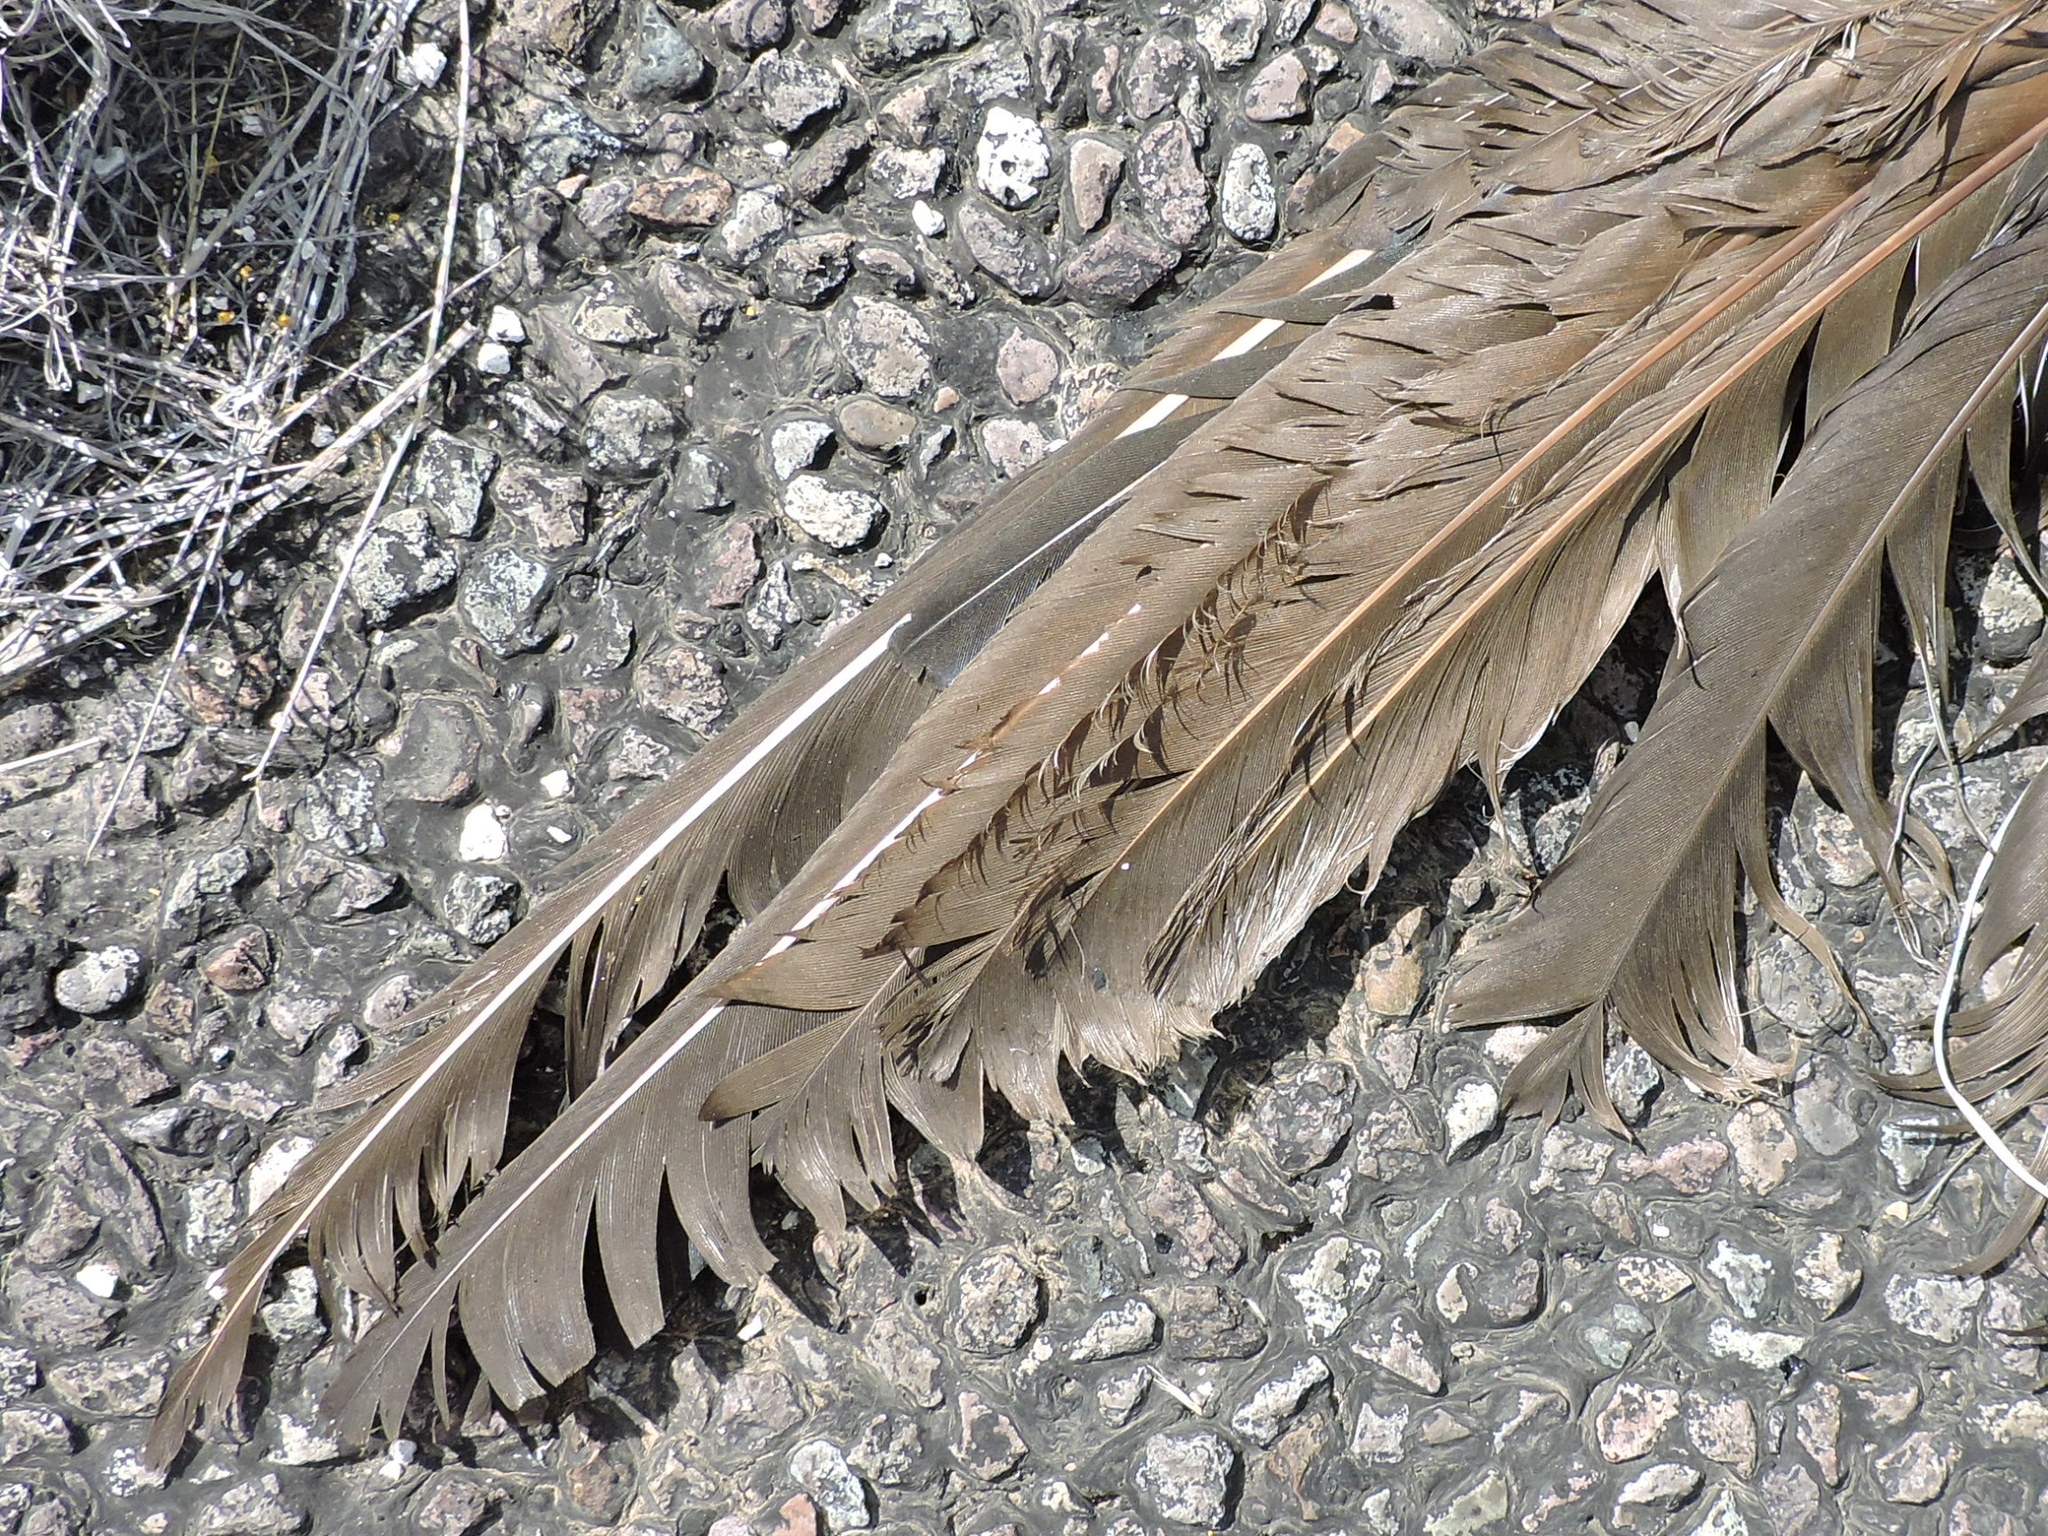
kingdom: Animalia
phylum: Chordata
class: Aves
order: Accipitriformes
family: Cathartidae
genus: Coragyps
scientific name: Coragyps atratus
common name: Black vulture
